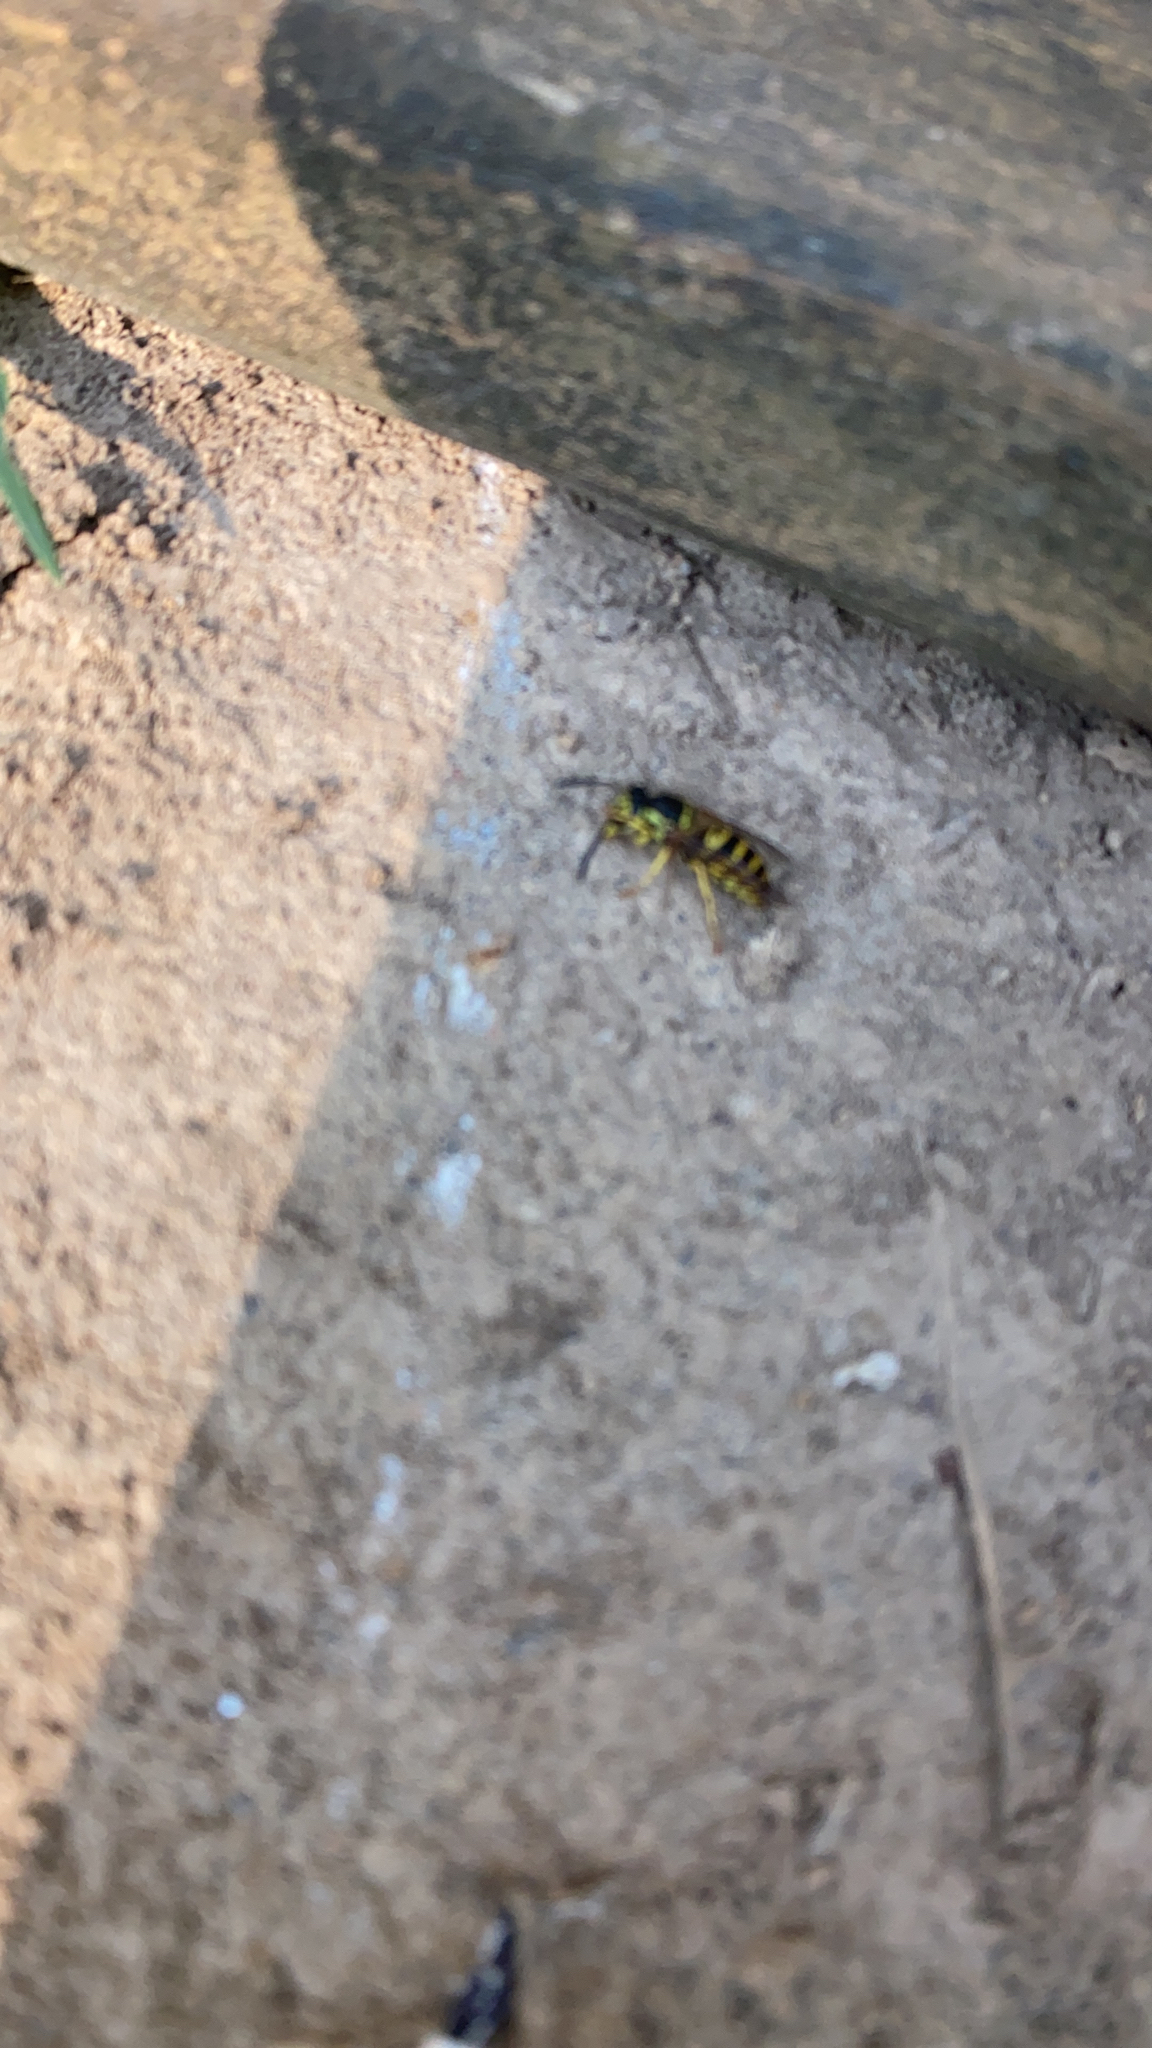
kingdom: Animalia
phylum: Arthropoda
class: Insecta
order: Hymenoptera
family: Vespidae
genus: Vespula
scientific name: Vespula
